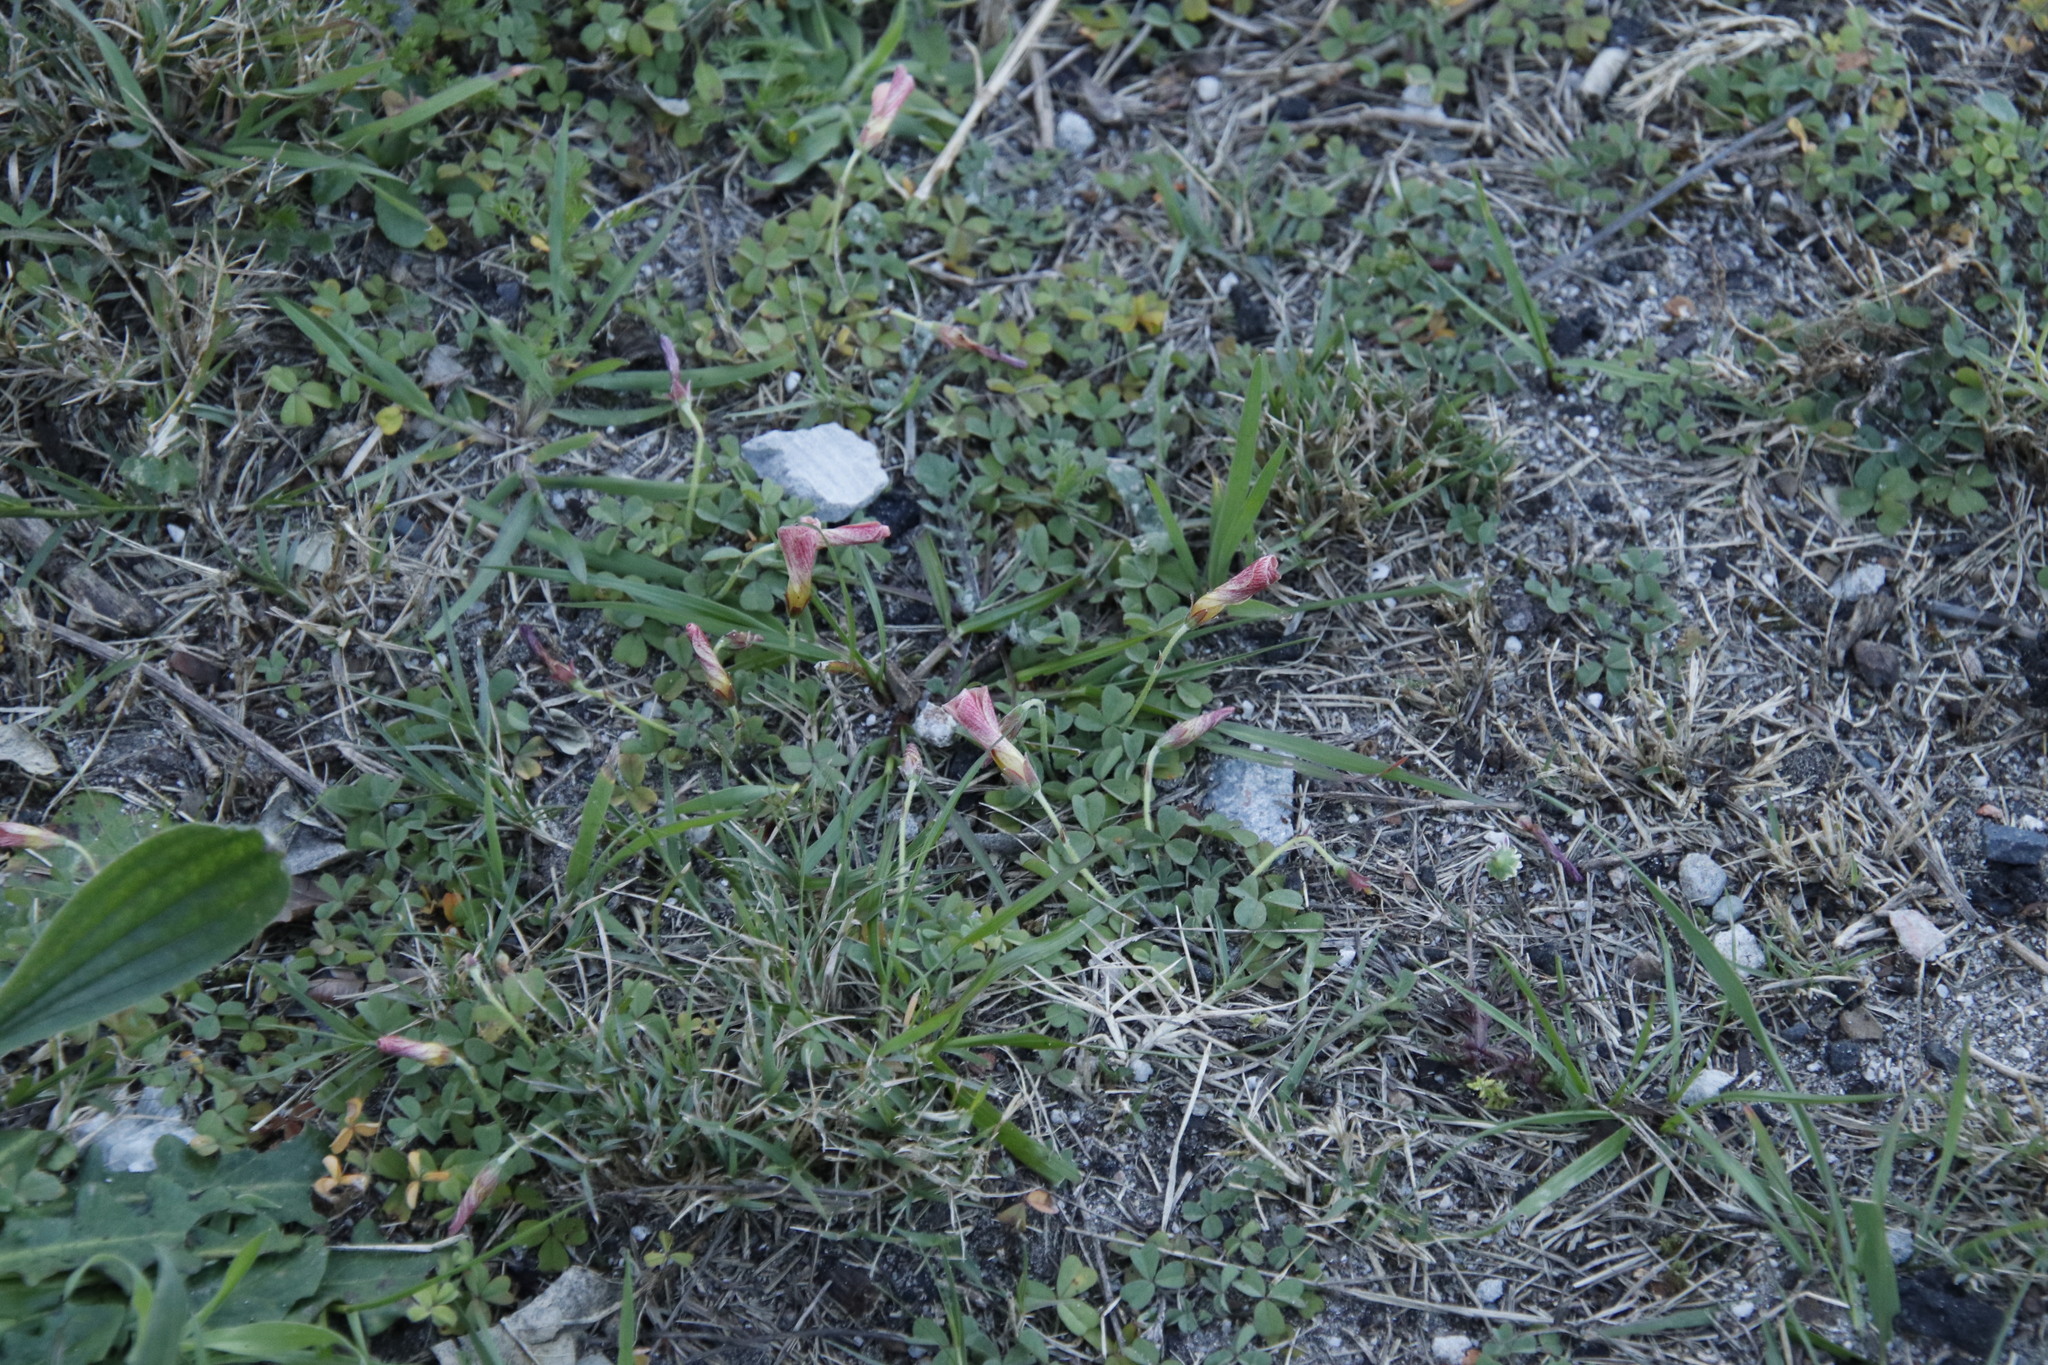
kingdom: Plantae
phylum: Tracheophyta
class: Magnoliopsida
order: Oxalidales
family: Oxalidaceae
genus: Oxalis
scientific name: Oxalis obtusa
